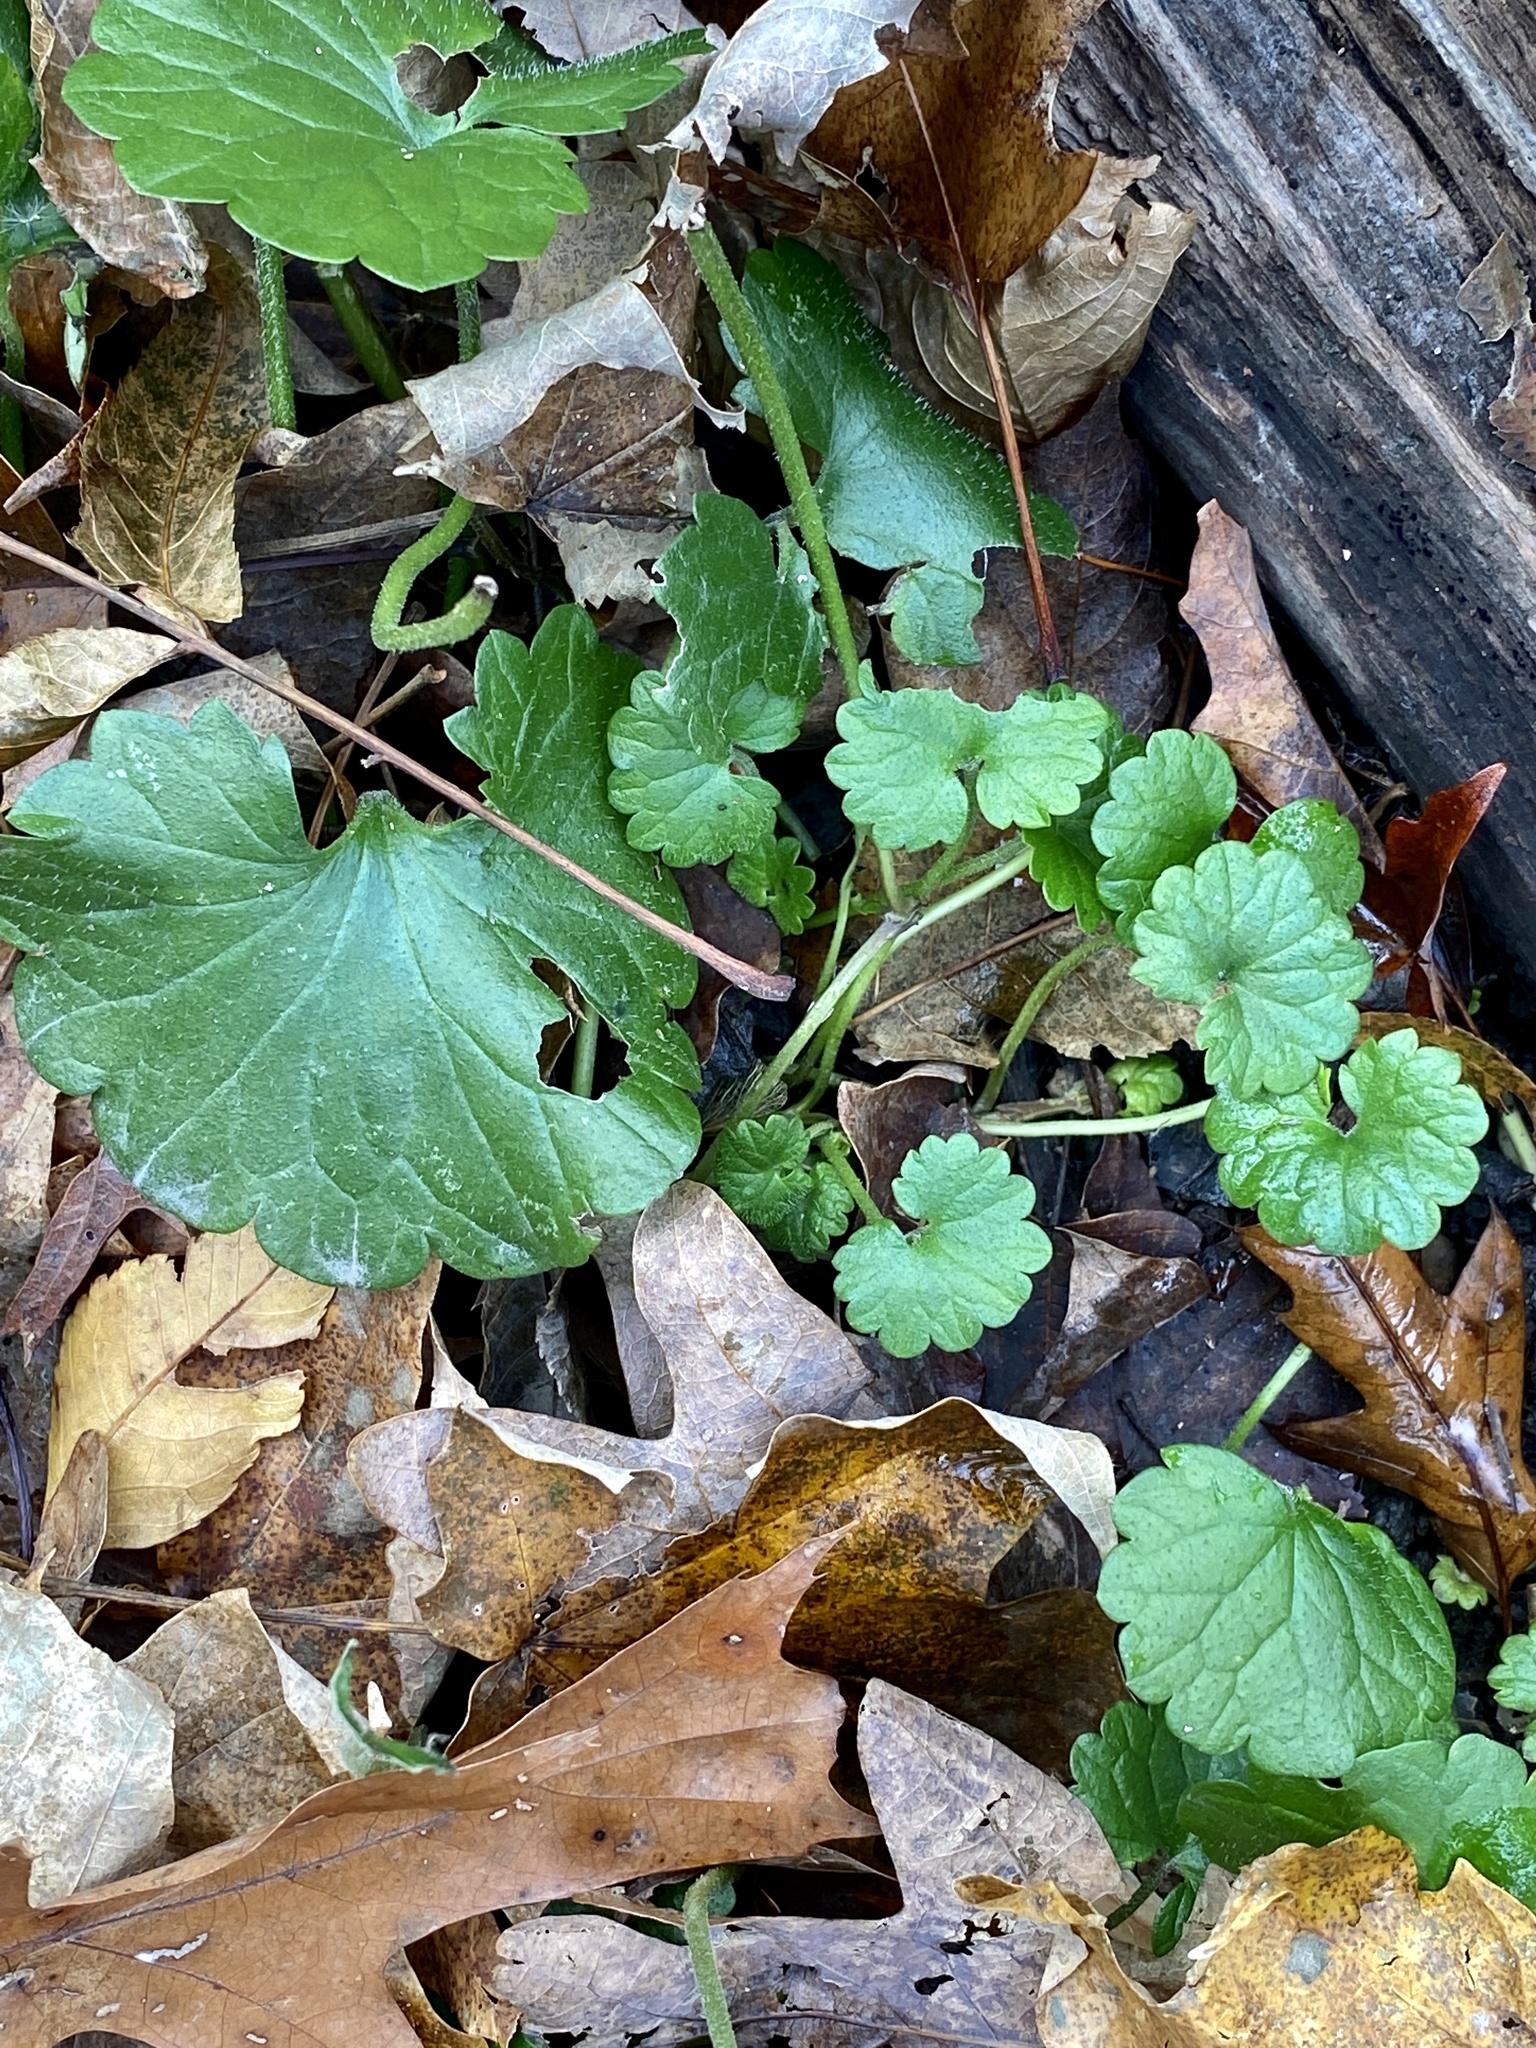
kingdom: Plantae
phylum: Tracheophyta
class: Magnoliopsida
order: Lamiales
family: Lamiaceae
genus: Glechoma
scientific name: Glechoma hederacea
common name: Ground ivy
